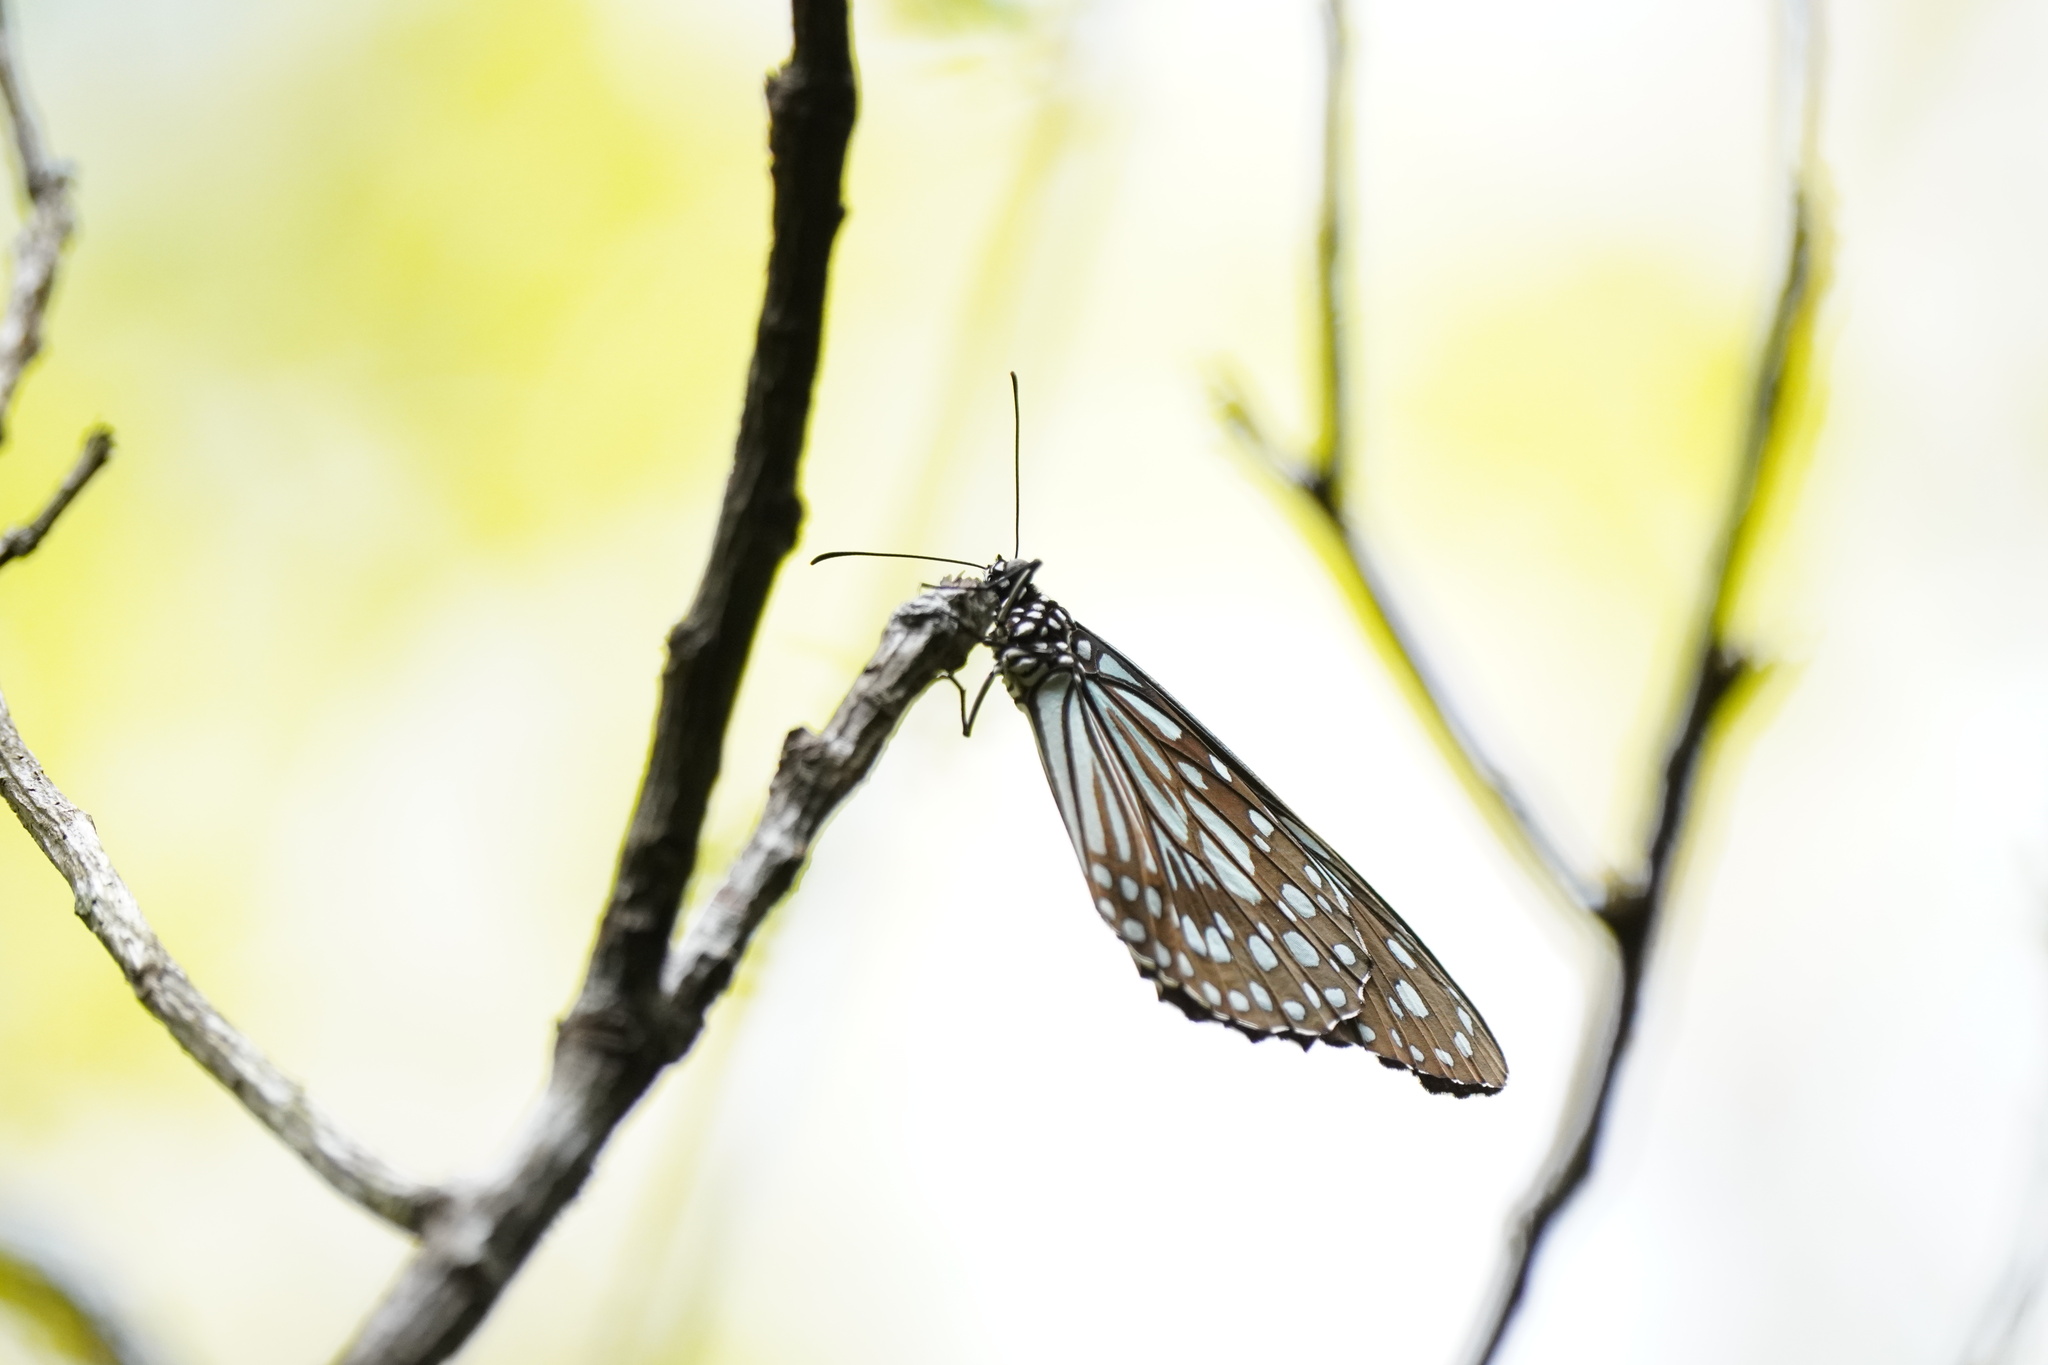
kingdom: Animalia
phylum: Arthropoda
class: Insecta
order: Lepidoptera
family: Nymphalidae
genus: Tirumala
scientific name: Tirumala limniace
